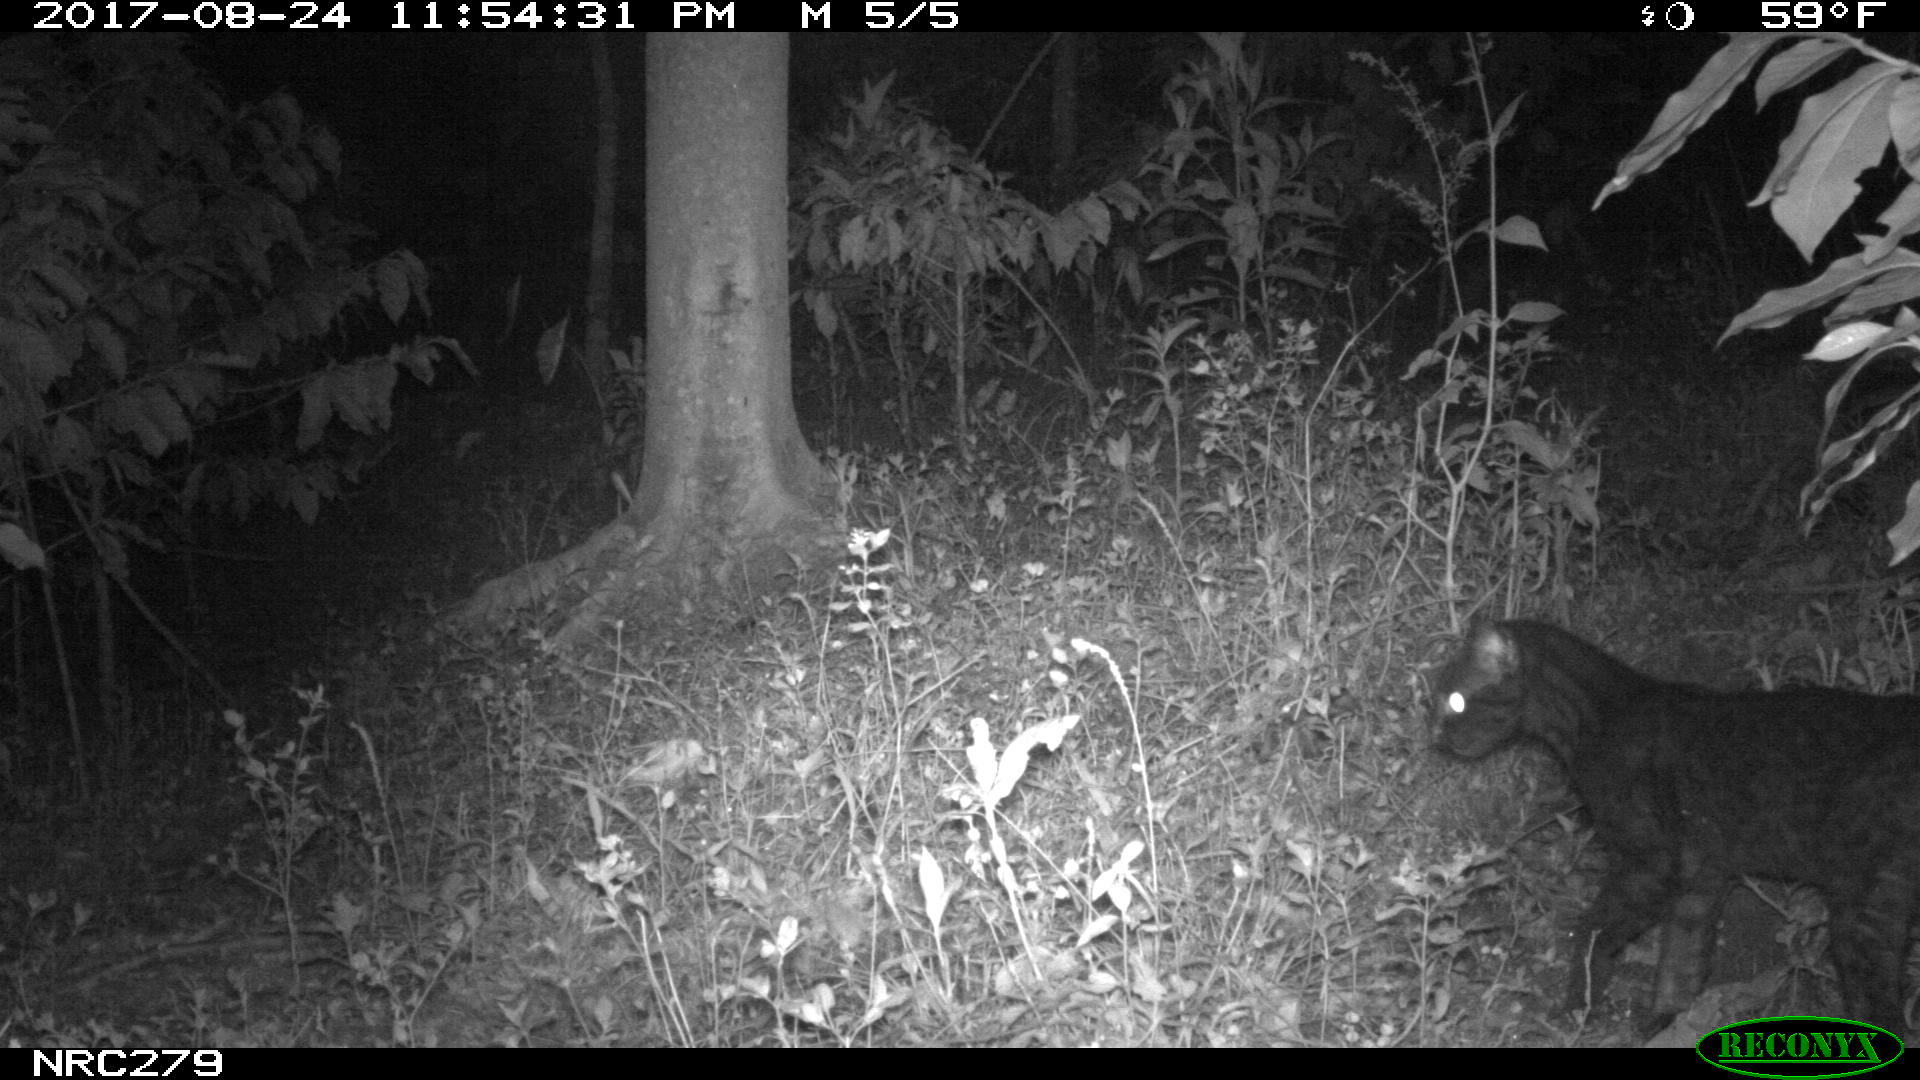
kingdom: Animalia
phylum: Chordata
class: Mammalia
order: Carnivora
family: Felidae
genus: Leopardus
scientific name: Leopardus tigrinus
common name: Oncilla
